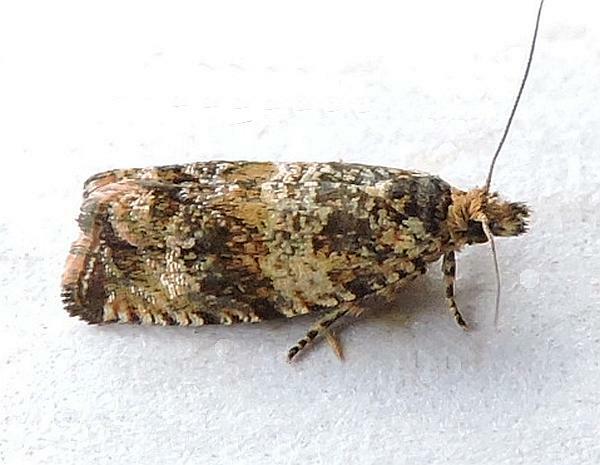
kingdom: Animalia
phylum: Arthropoda
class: Insecta
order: Lepidoptera
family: Tortricidae
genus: Celypha
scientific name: Celypha cespitana
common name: Thyme marble
